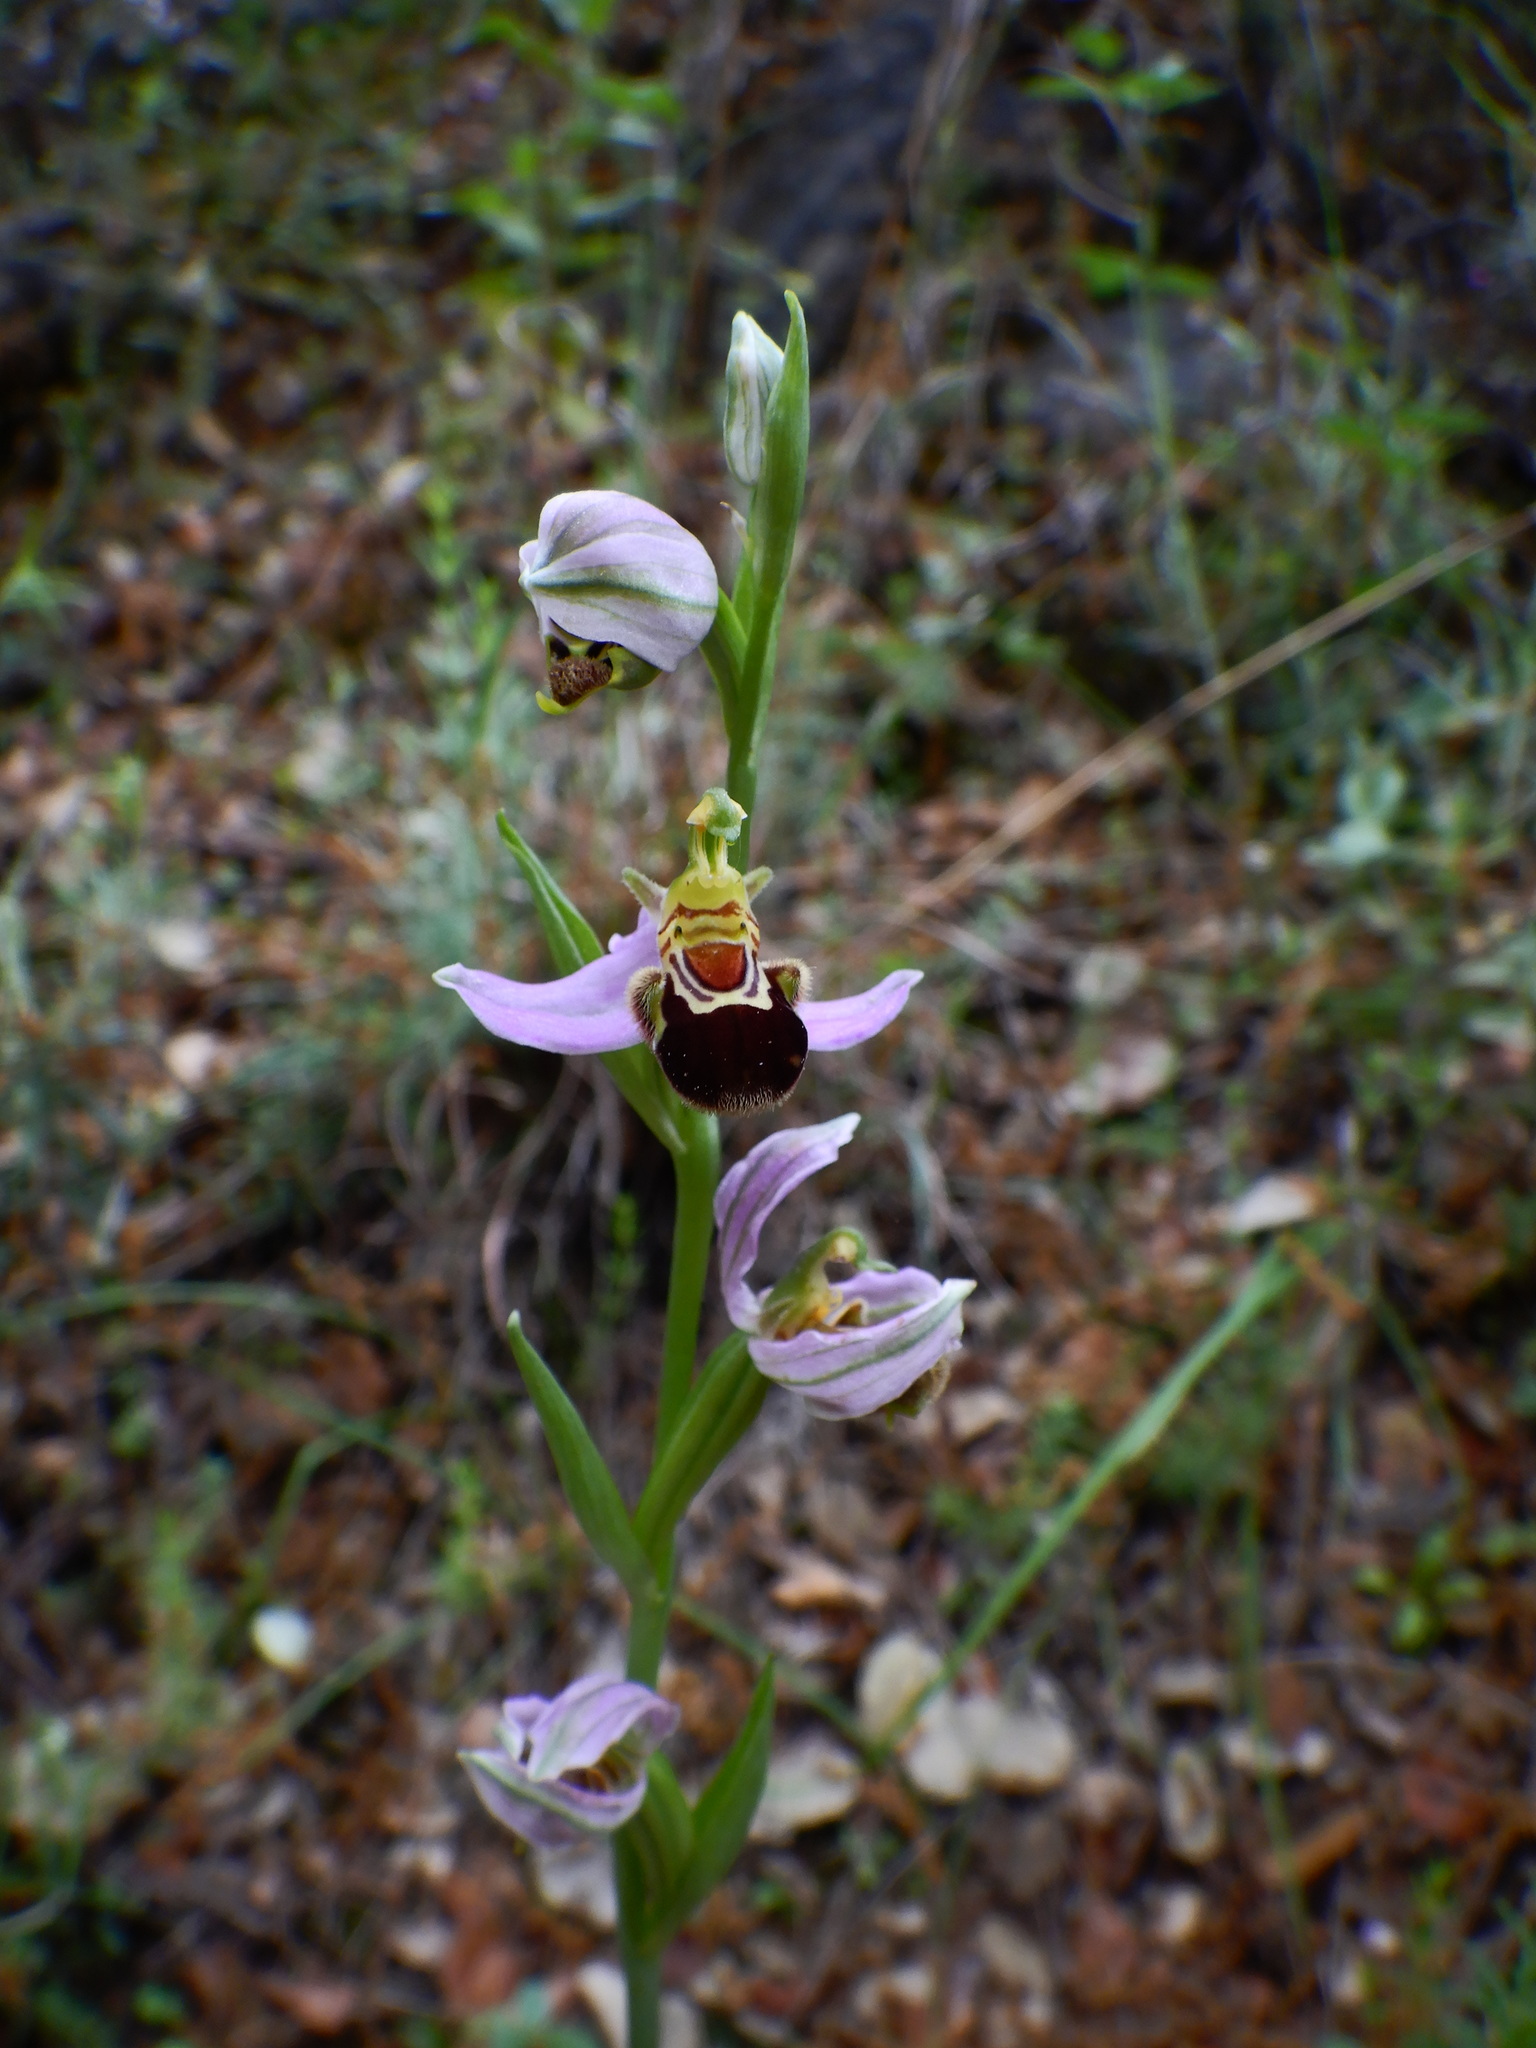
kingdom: Plantae
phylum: Tracheophyta
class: Liliopsida
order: Asparagales
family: Orchidaceae
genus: Ophrys
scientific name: Ophrys apifera
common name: Bee orchid
